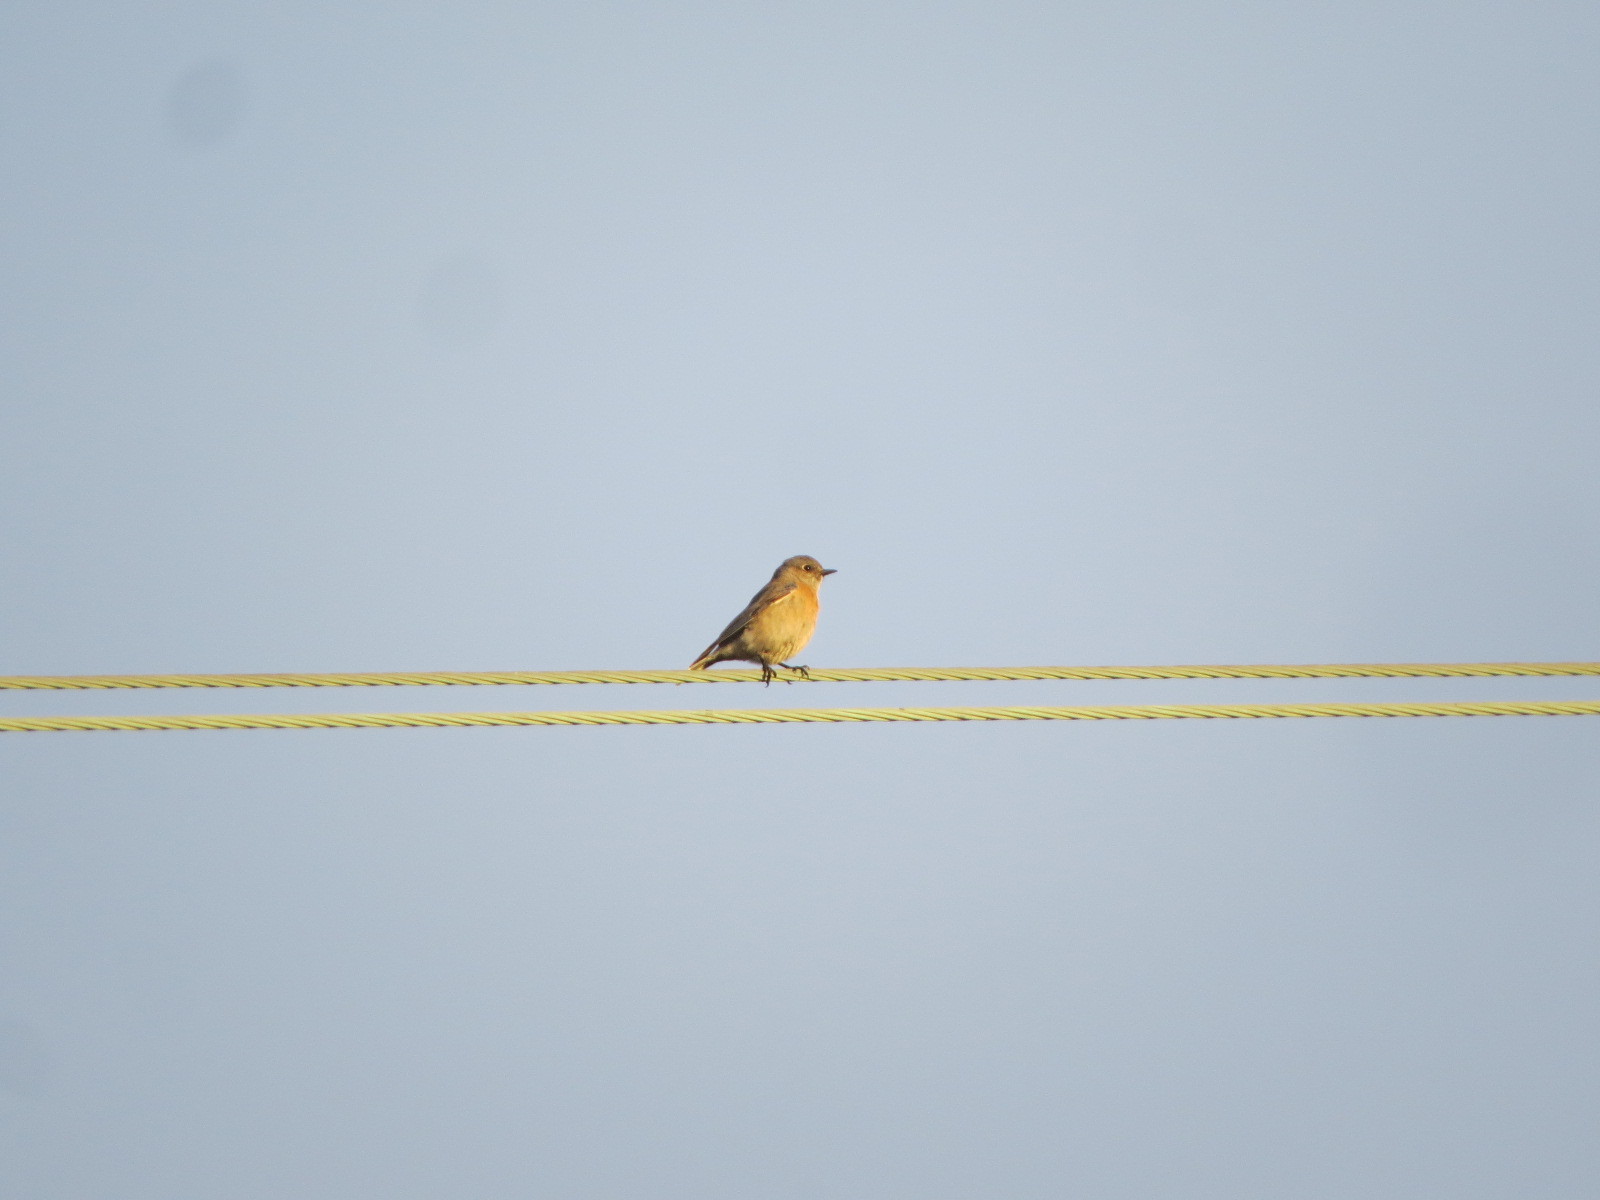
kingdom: Animalia
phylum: Chordata
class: Aves
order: Passeriformes
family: Turdidae
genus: Sialia
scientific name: Sialia mexicana
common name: Western bluebird
